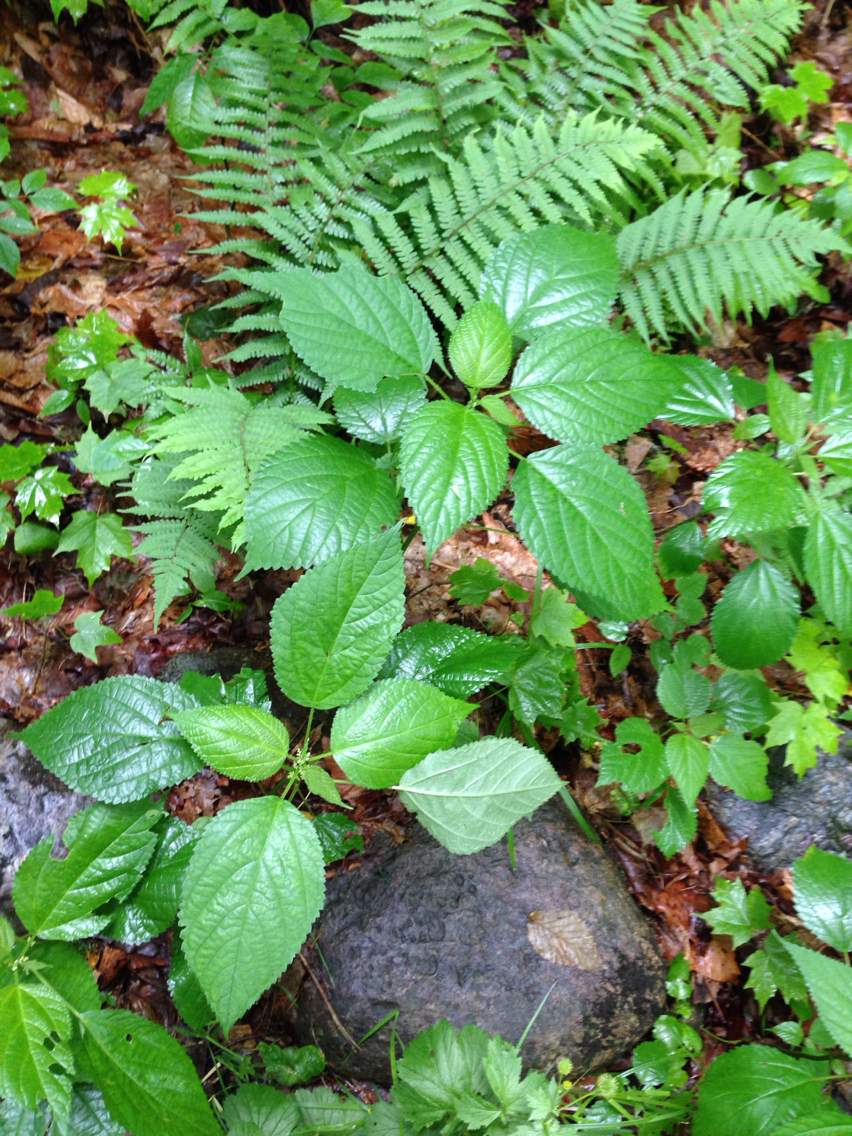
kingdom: Plantae
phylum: Tracheophyta
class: Magnoliopsida
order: Rosales
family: Urticaceae
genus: Laportea
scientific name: Laportea canadensis
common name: Canada nettle
